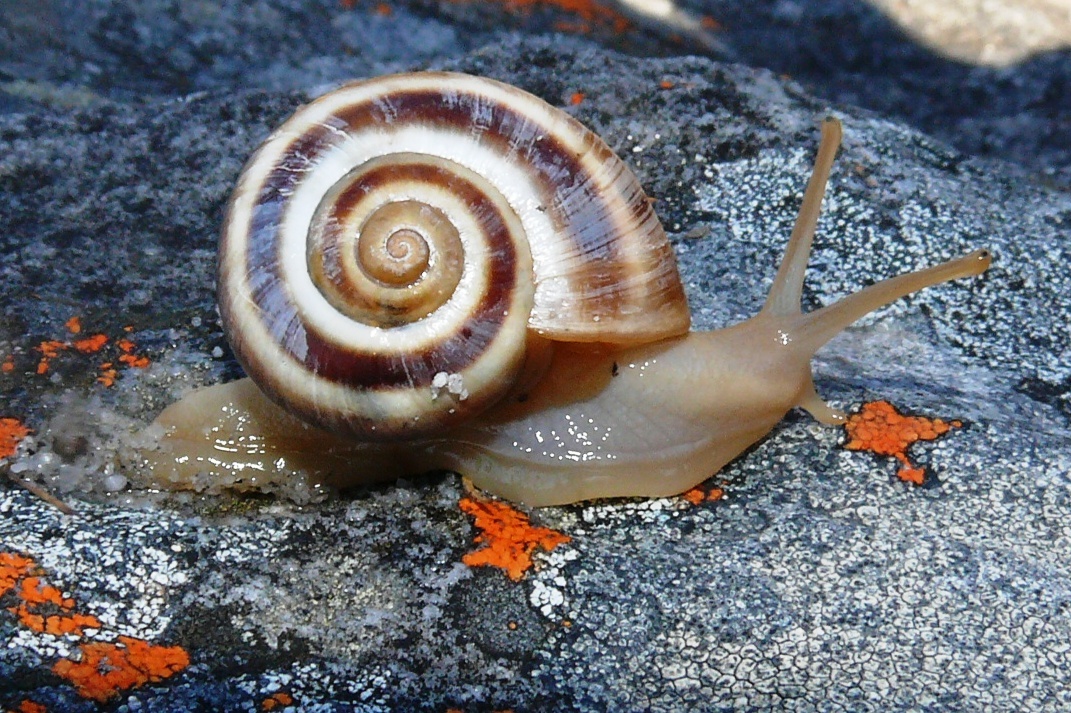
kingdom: Animalia
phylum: Mollusca
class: Gastropoda
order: Stylommatophora
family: Charopidae
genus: Phortion
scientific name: Phortion menkeanum
